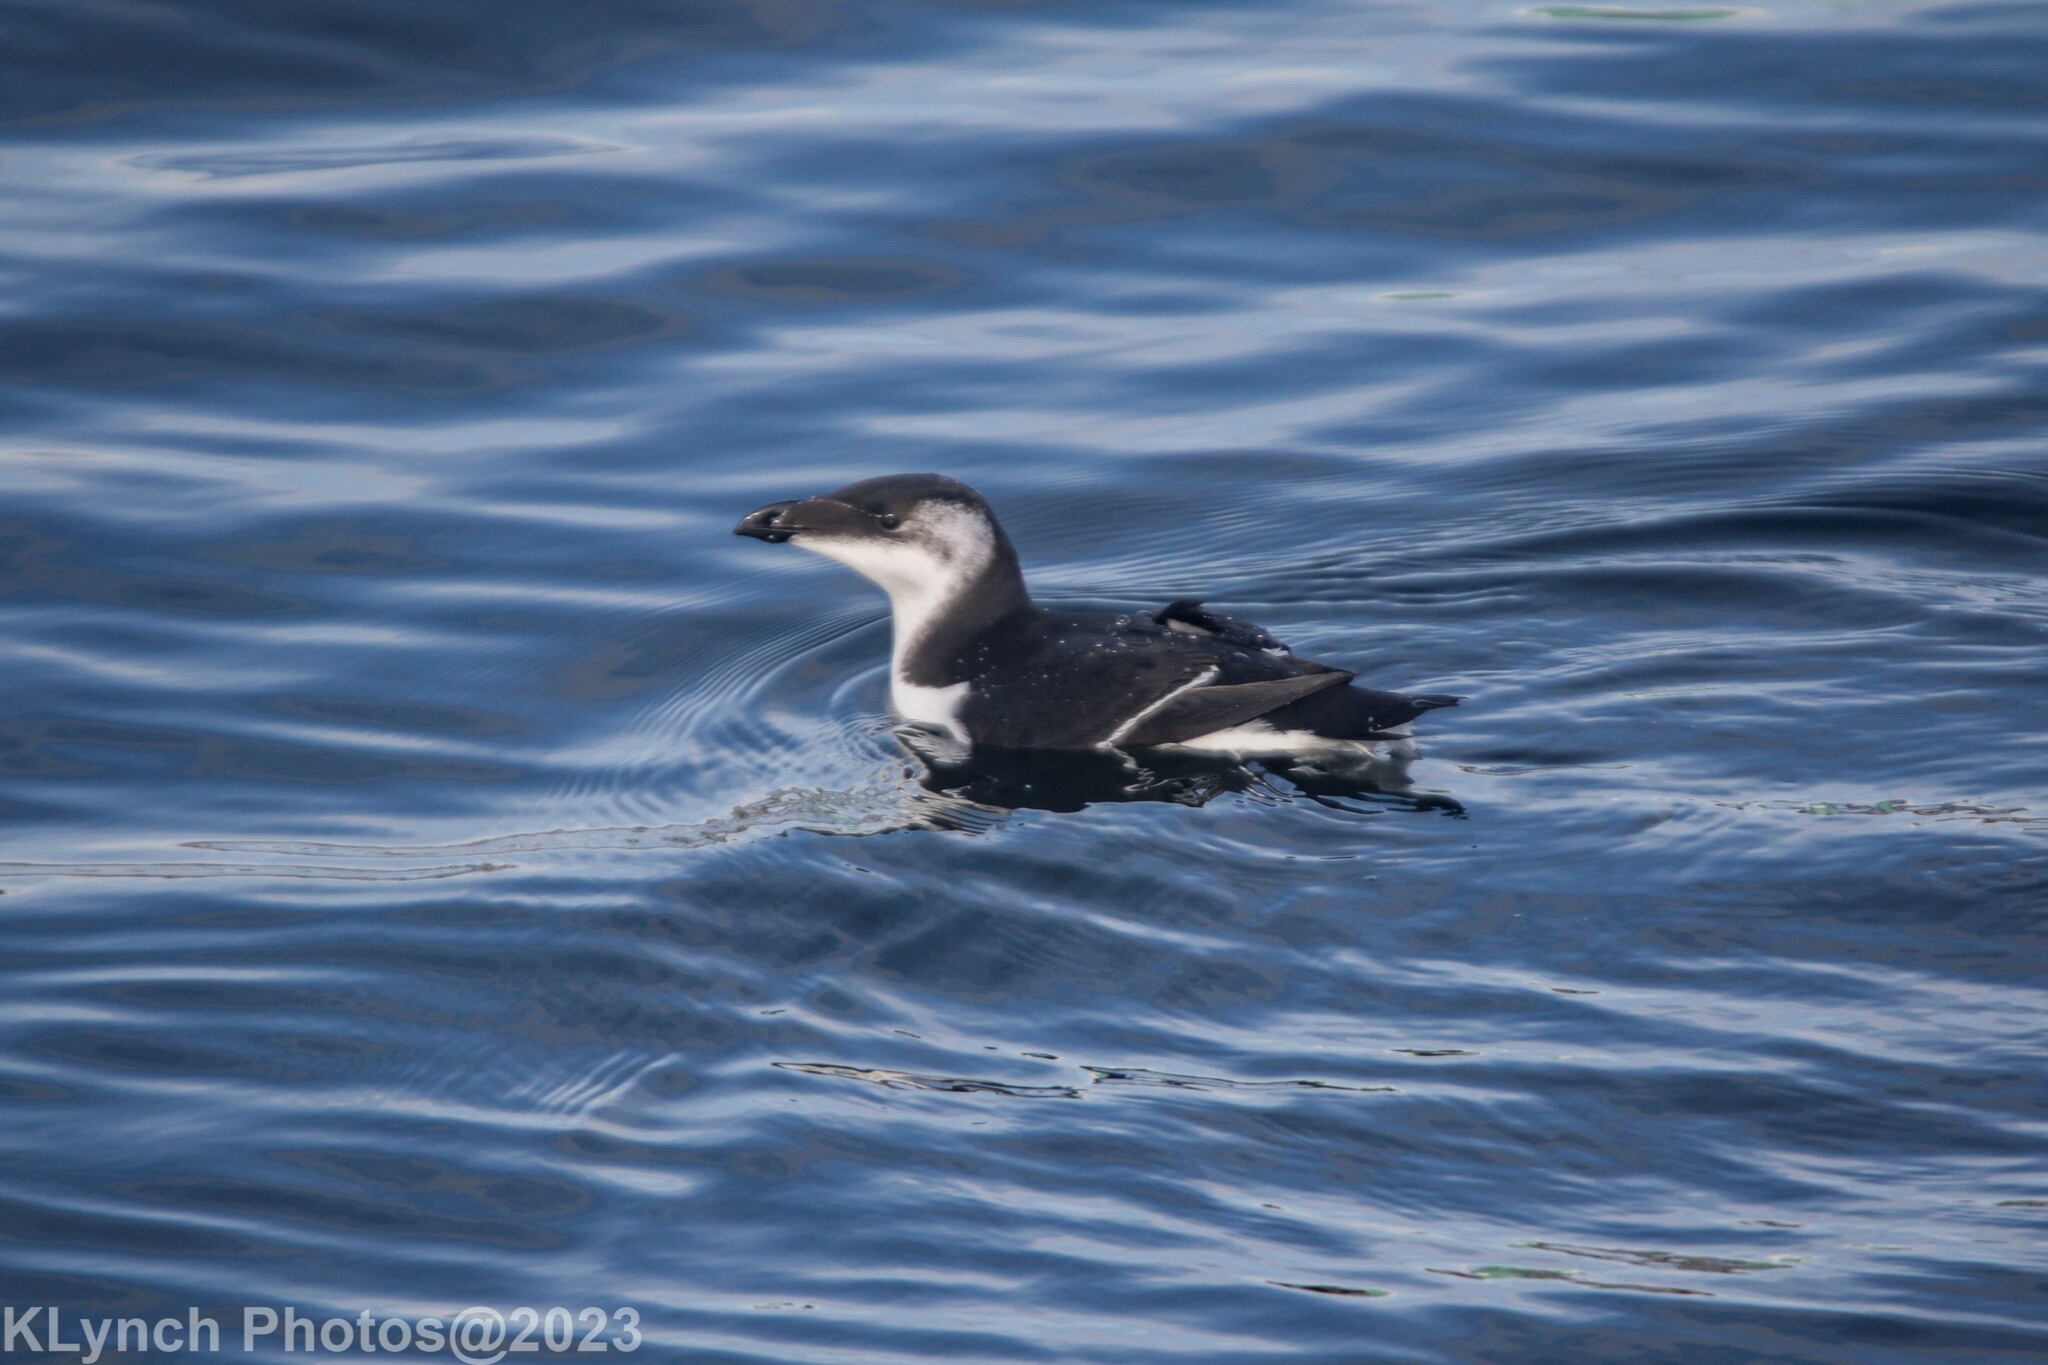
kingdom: Animalia
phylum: Chordata
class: Aves
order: Charadriiformes
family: Alcidae
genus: Alca
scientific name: Alca torda
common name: Razorbill
